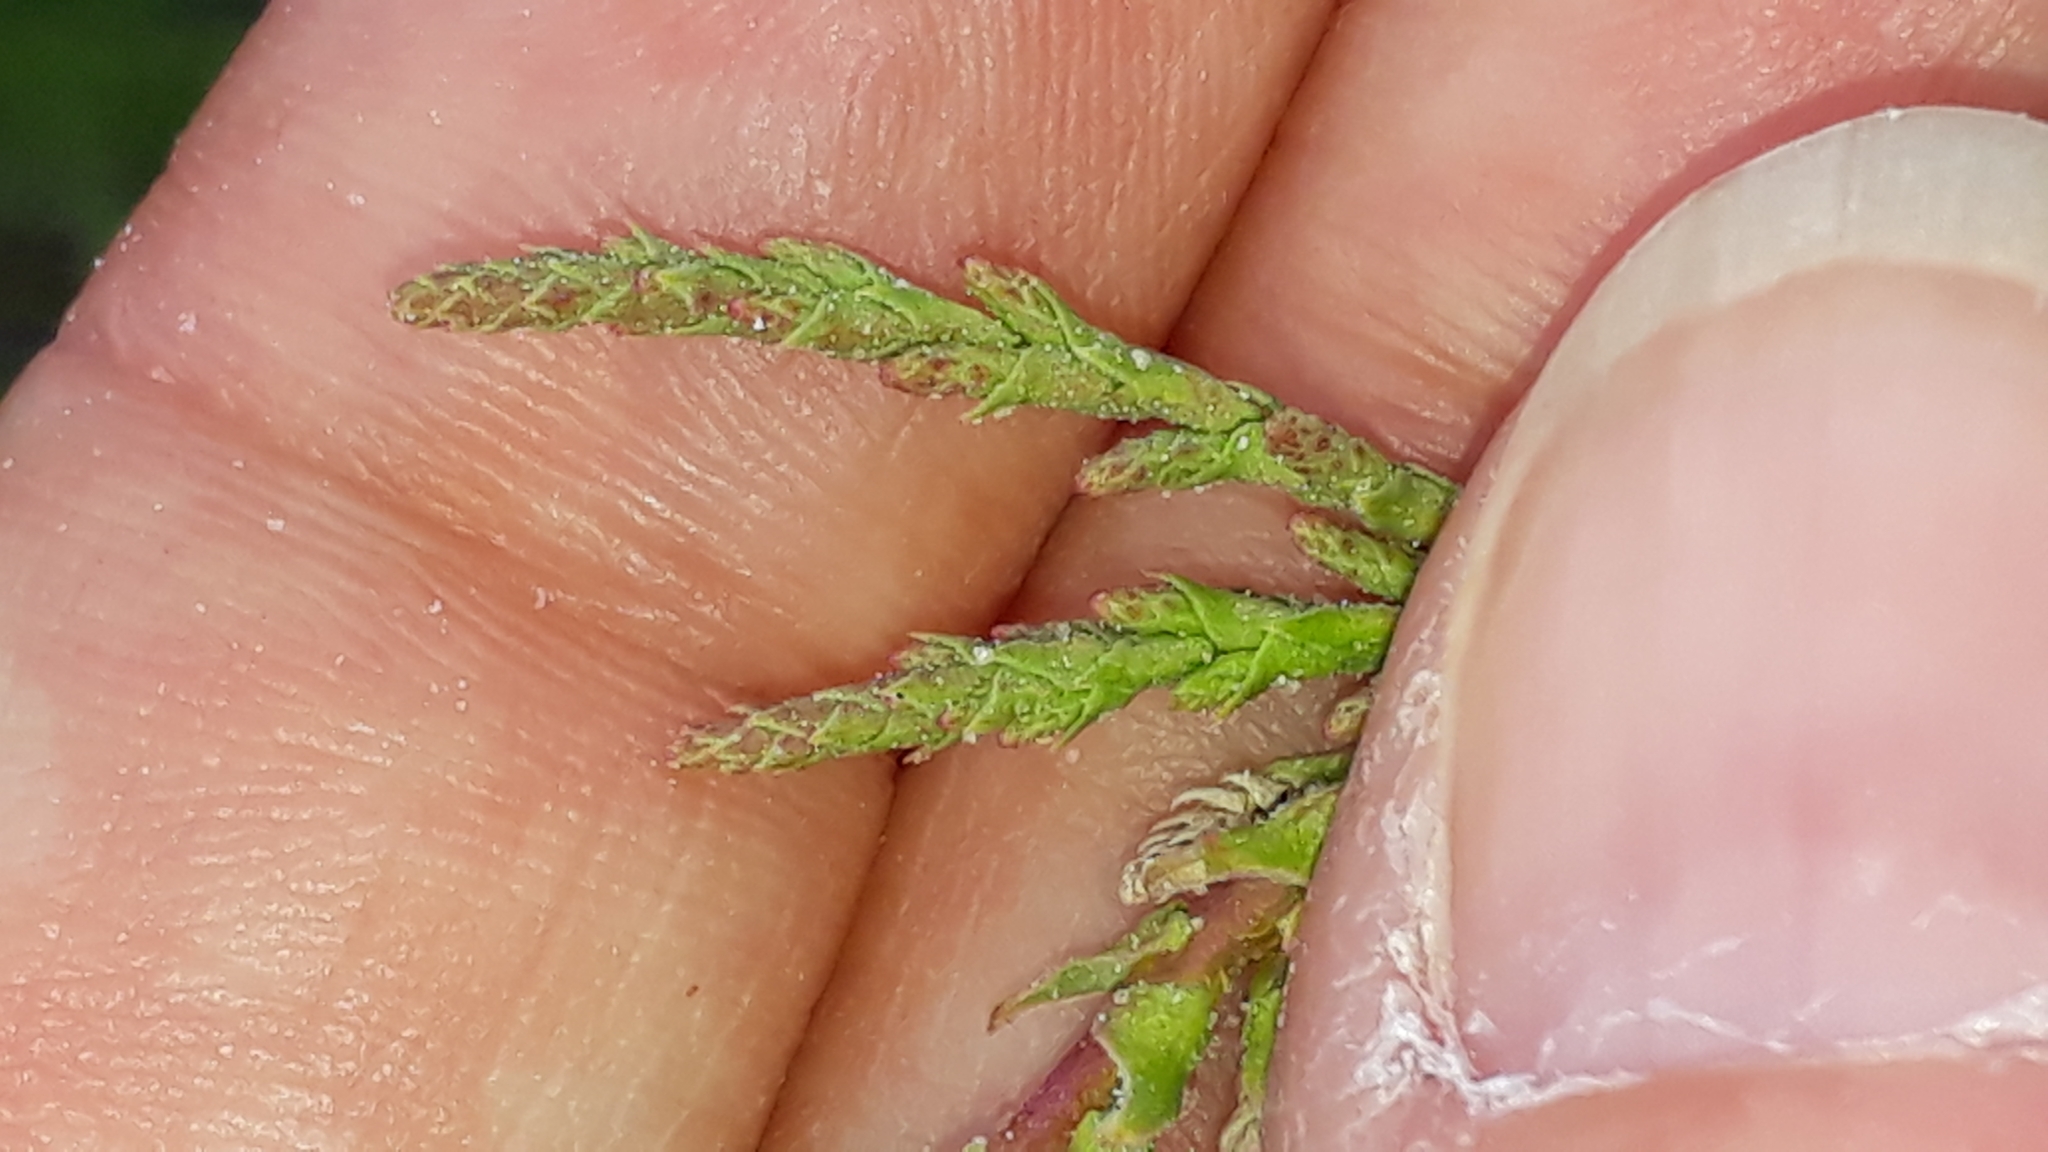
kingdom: Plantae
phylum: Tracheophyta
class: Magnoliopsida
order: Caryophyllales
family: Tamaricaceae
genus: Tamarix
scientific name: Tamarix africana
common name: African tamarisk
